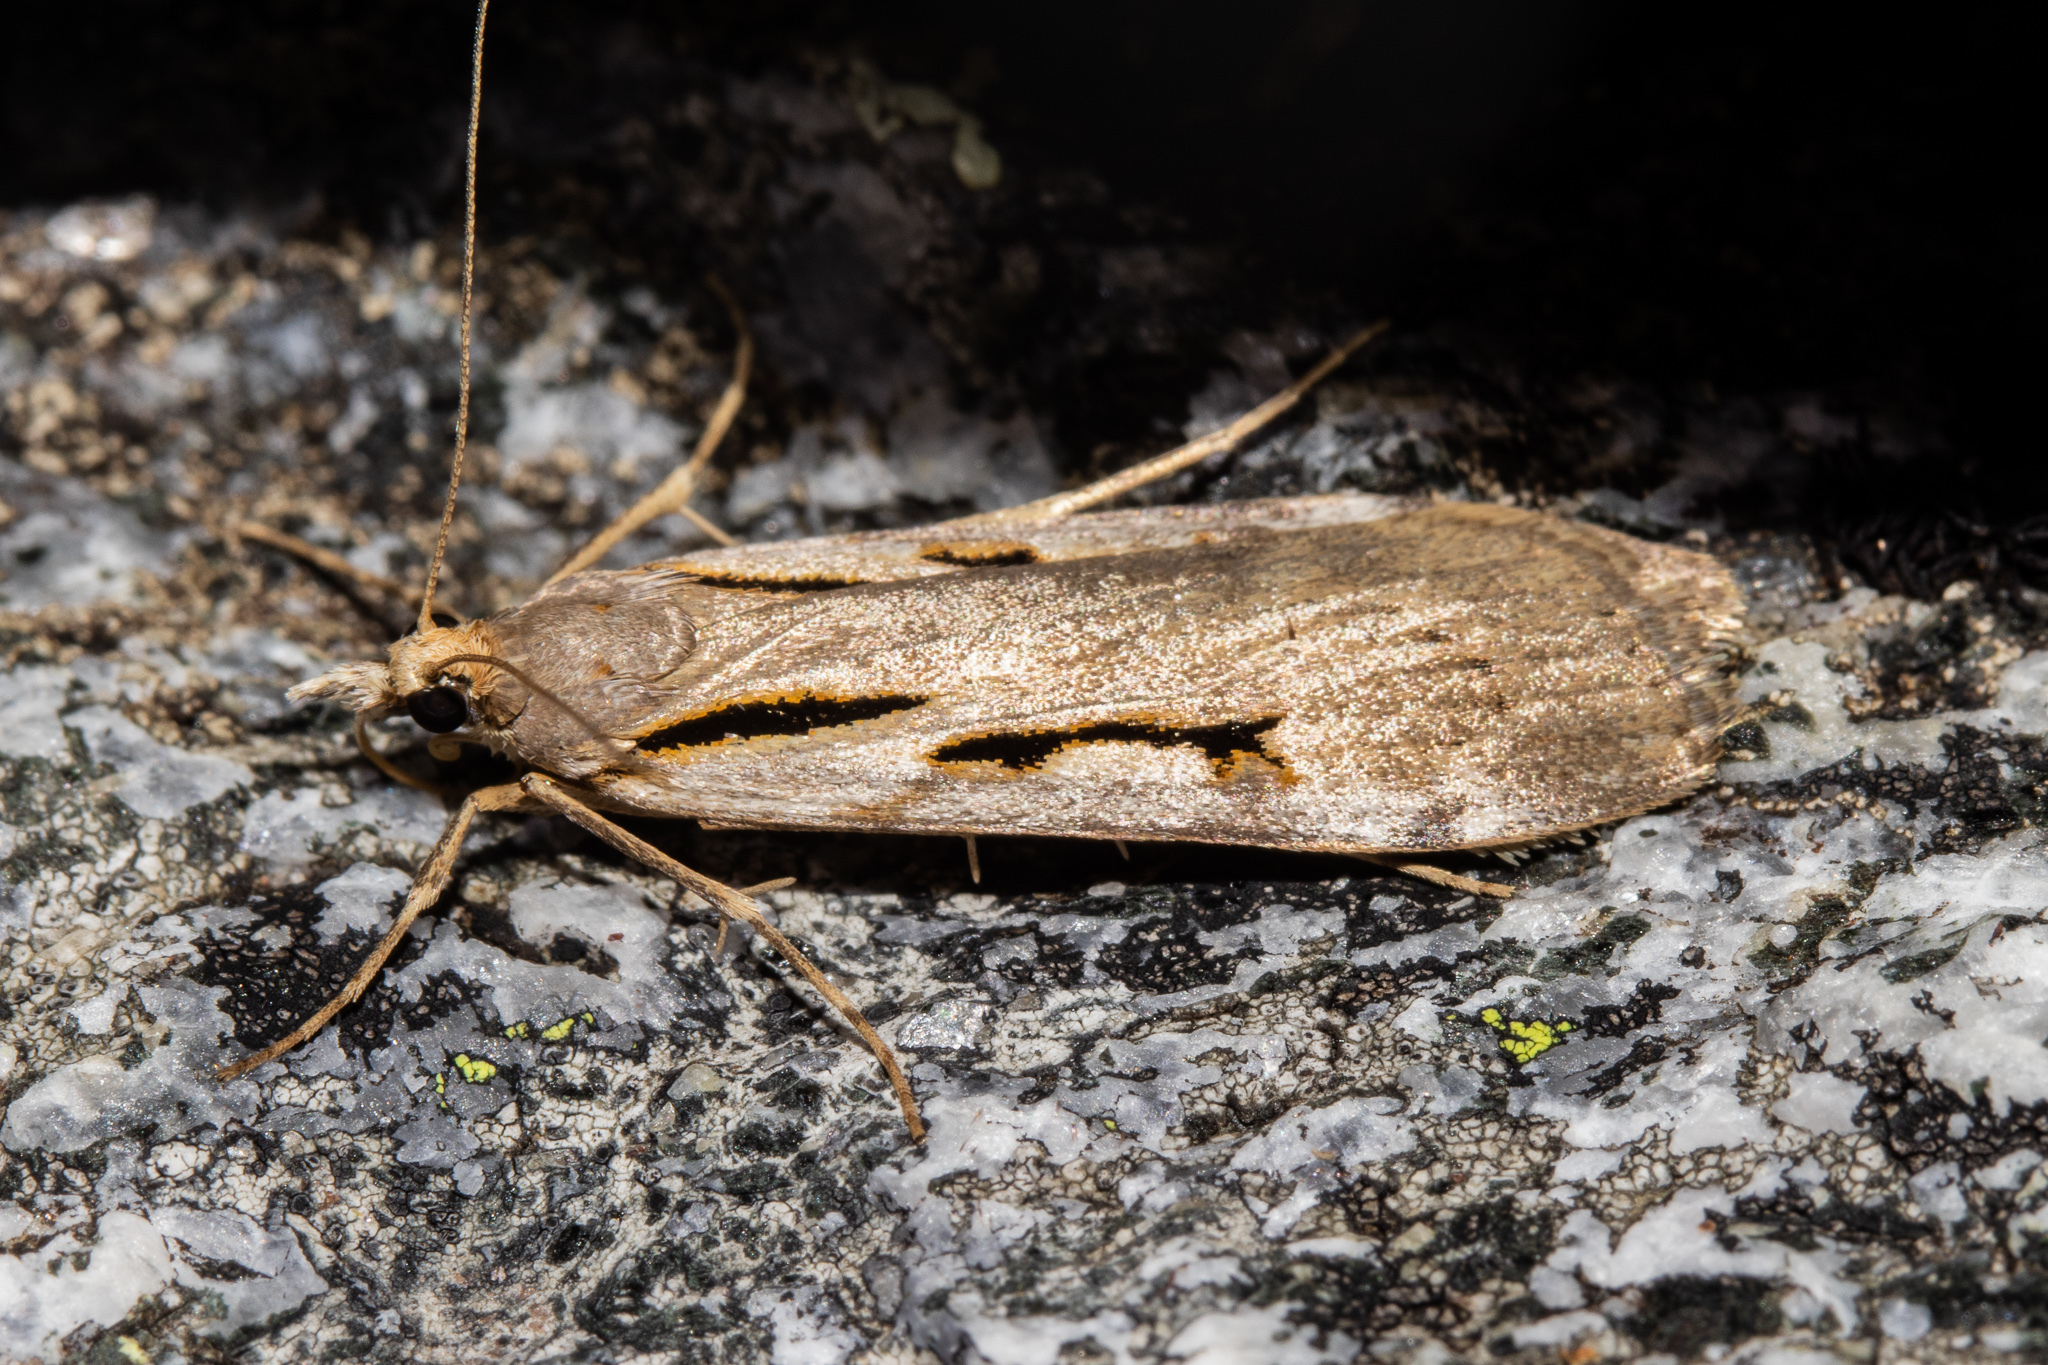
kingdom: Animalia
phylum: Arthropoda
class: Insecta
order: Lepidoptera
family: Crambidae
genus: Scoparia
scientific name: Scoparia scripta
